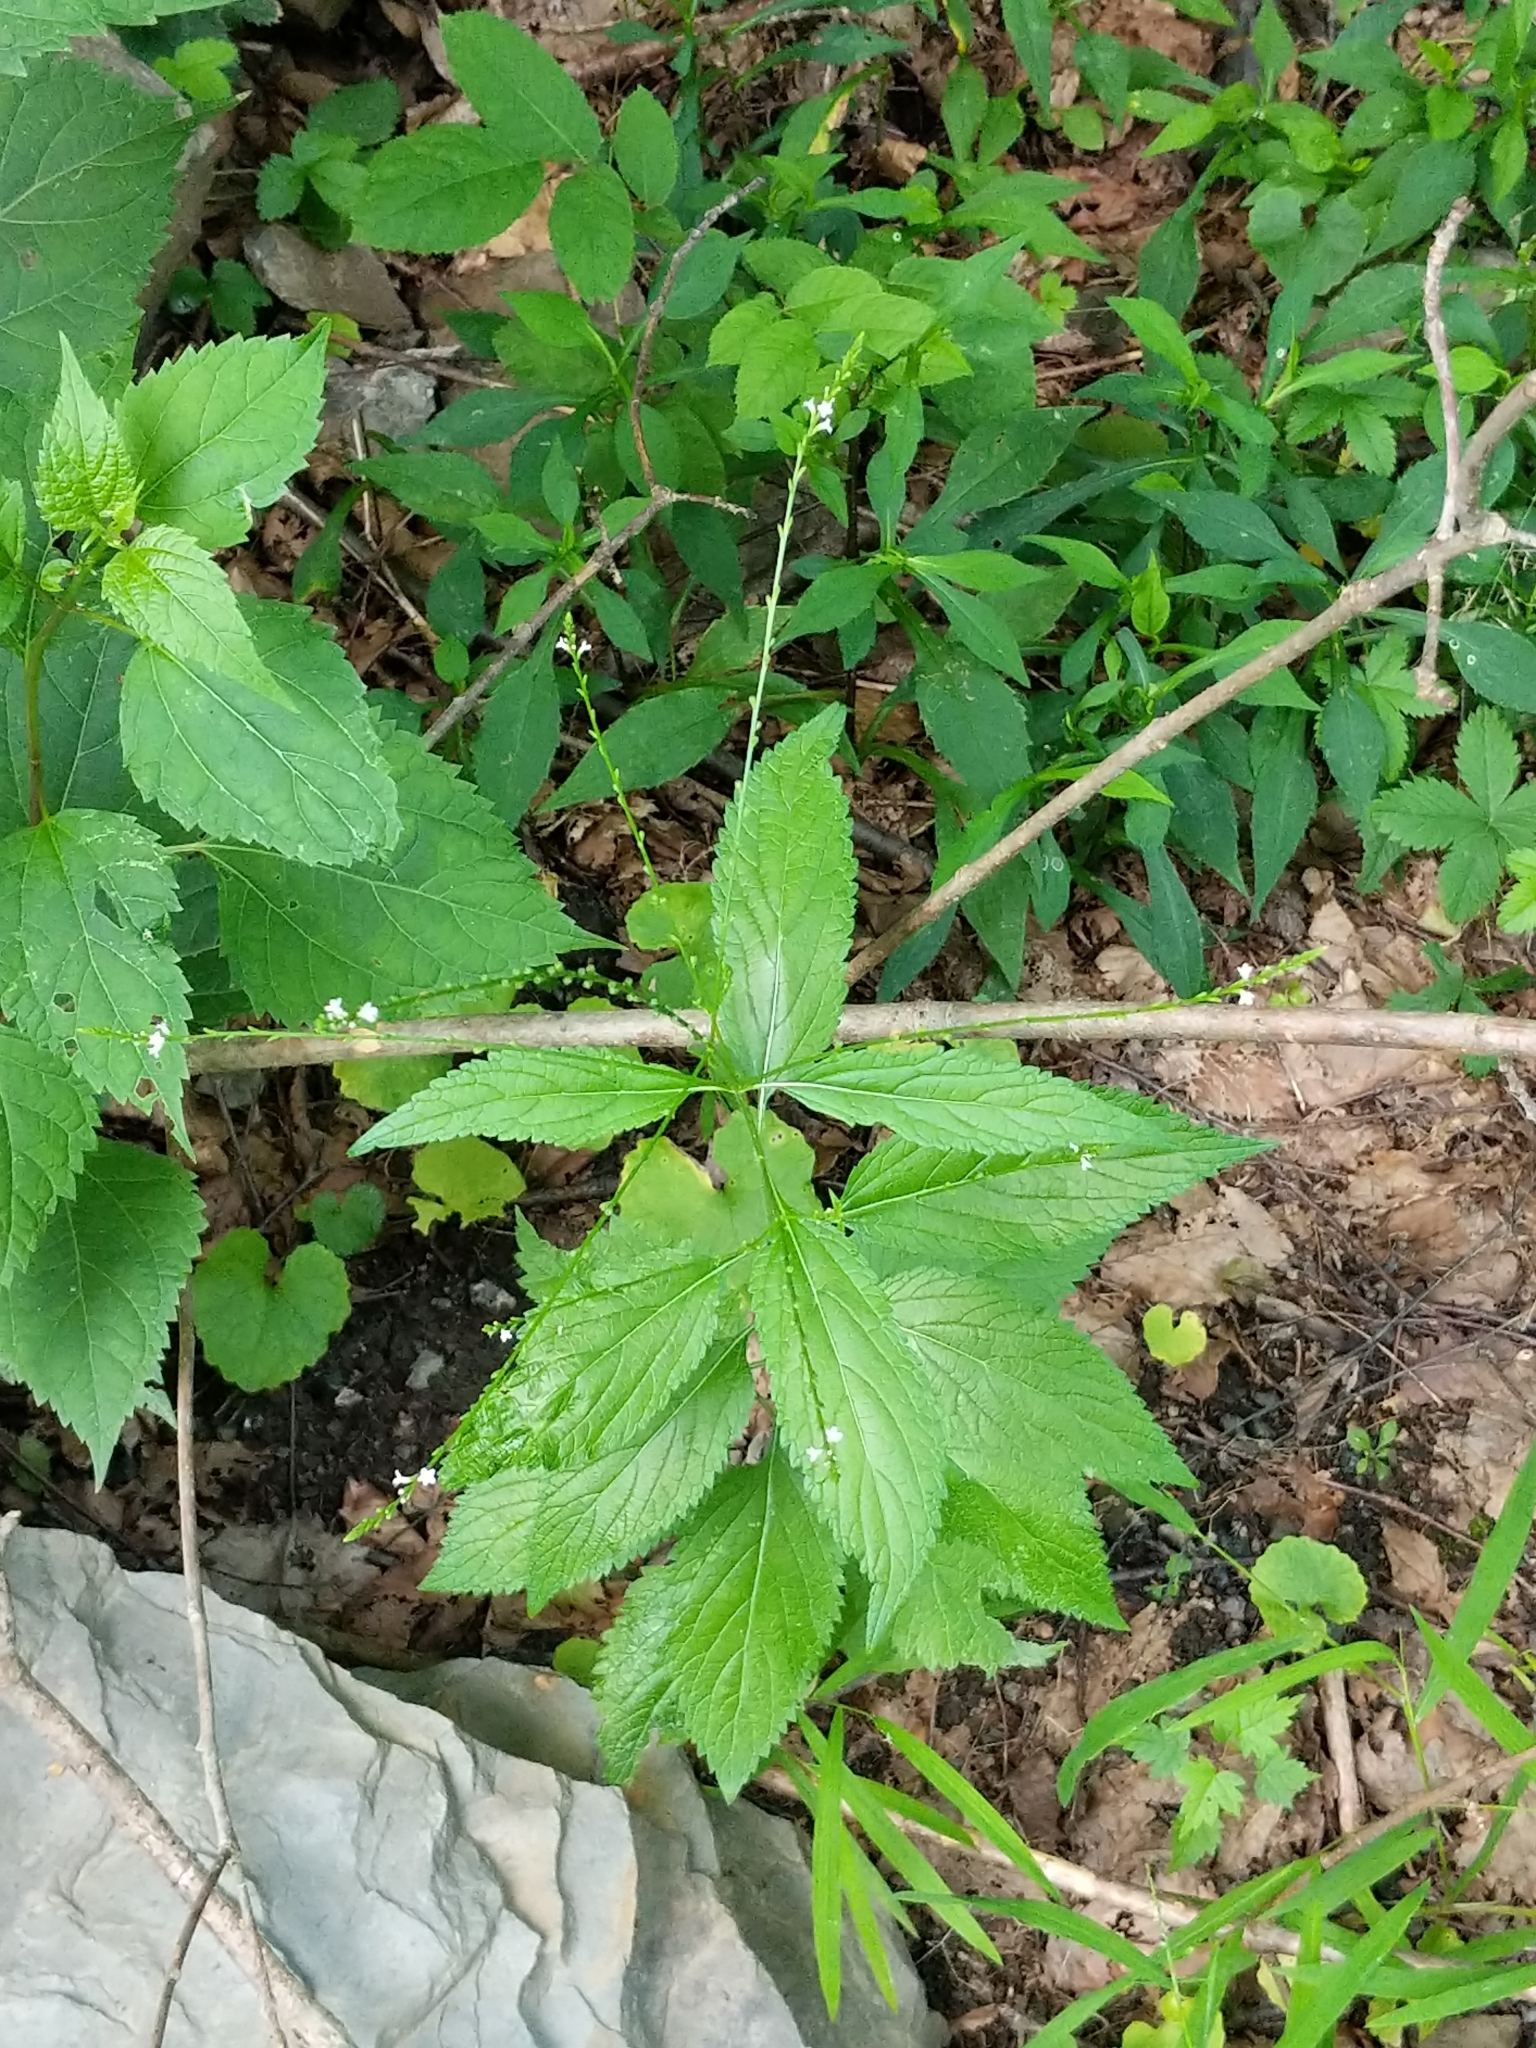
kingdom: Plantae
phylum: Tracheophyta
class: Magnoliopsida
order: Lamiales
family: Verbenaceae
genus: Verbena
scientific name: Verbena urticifolia
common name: Nettle-leaved vervain
